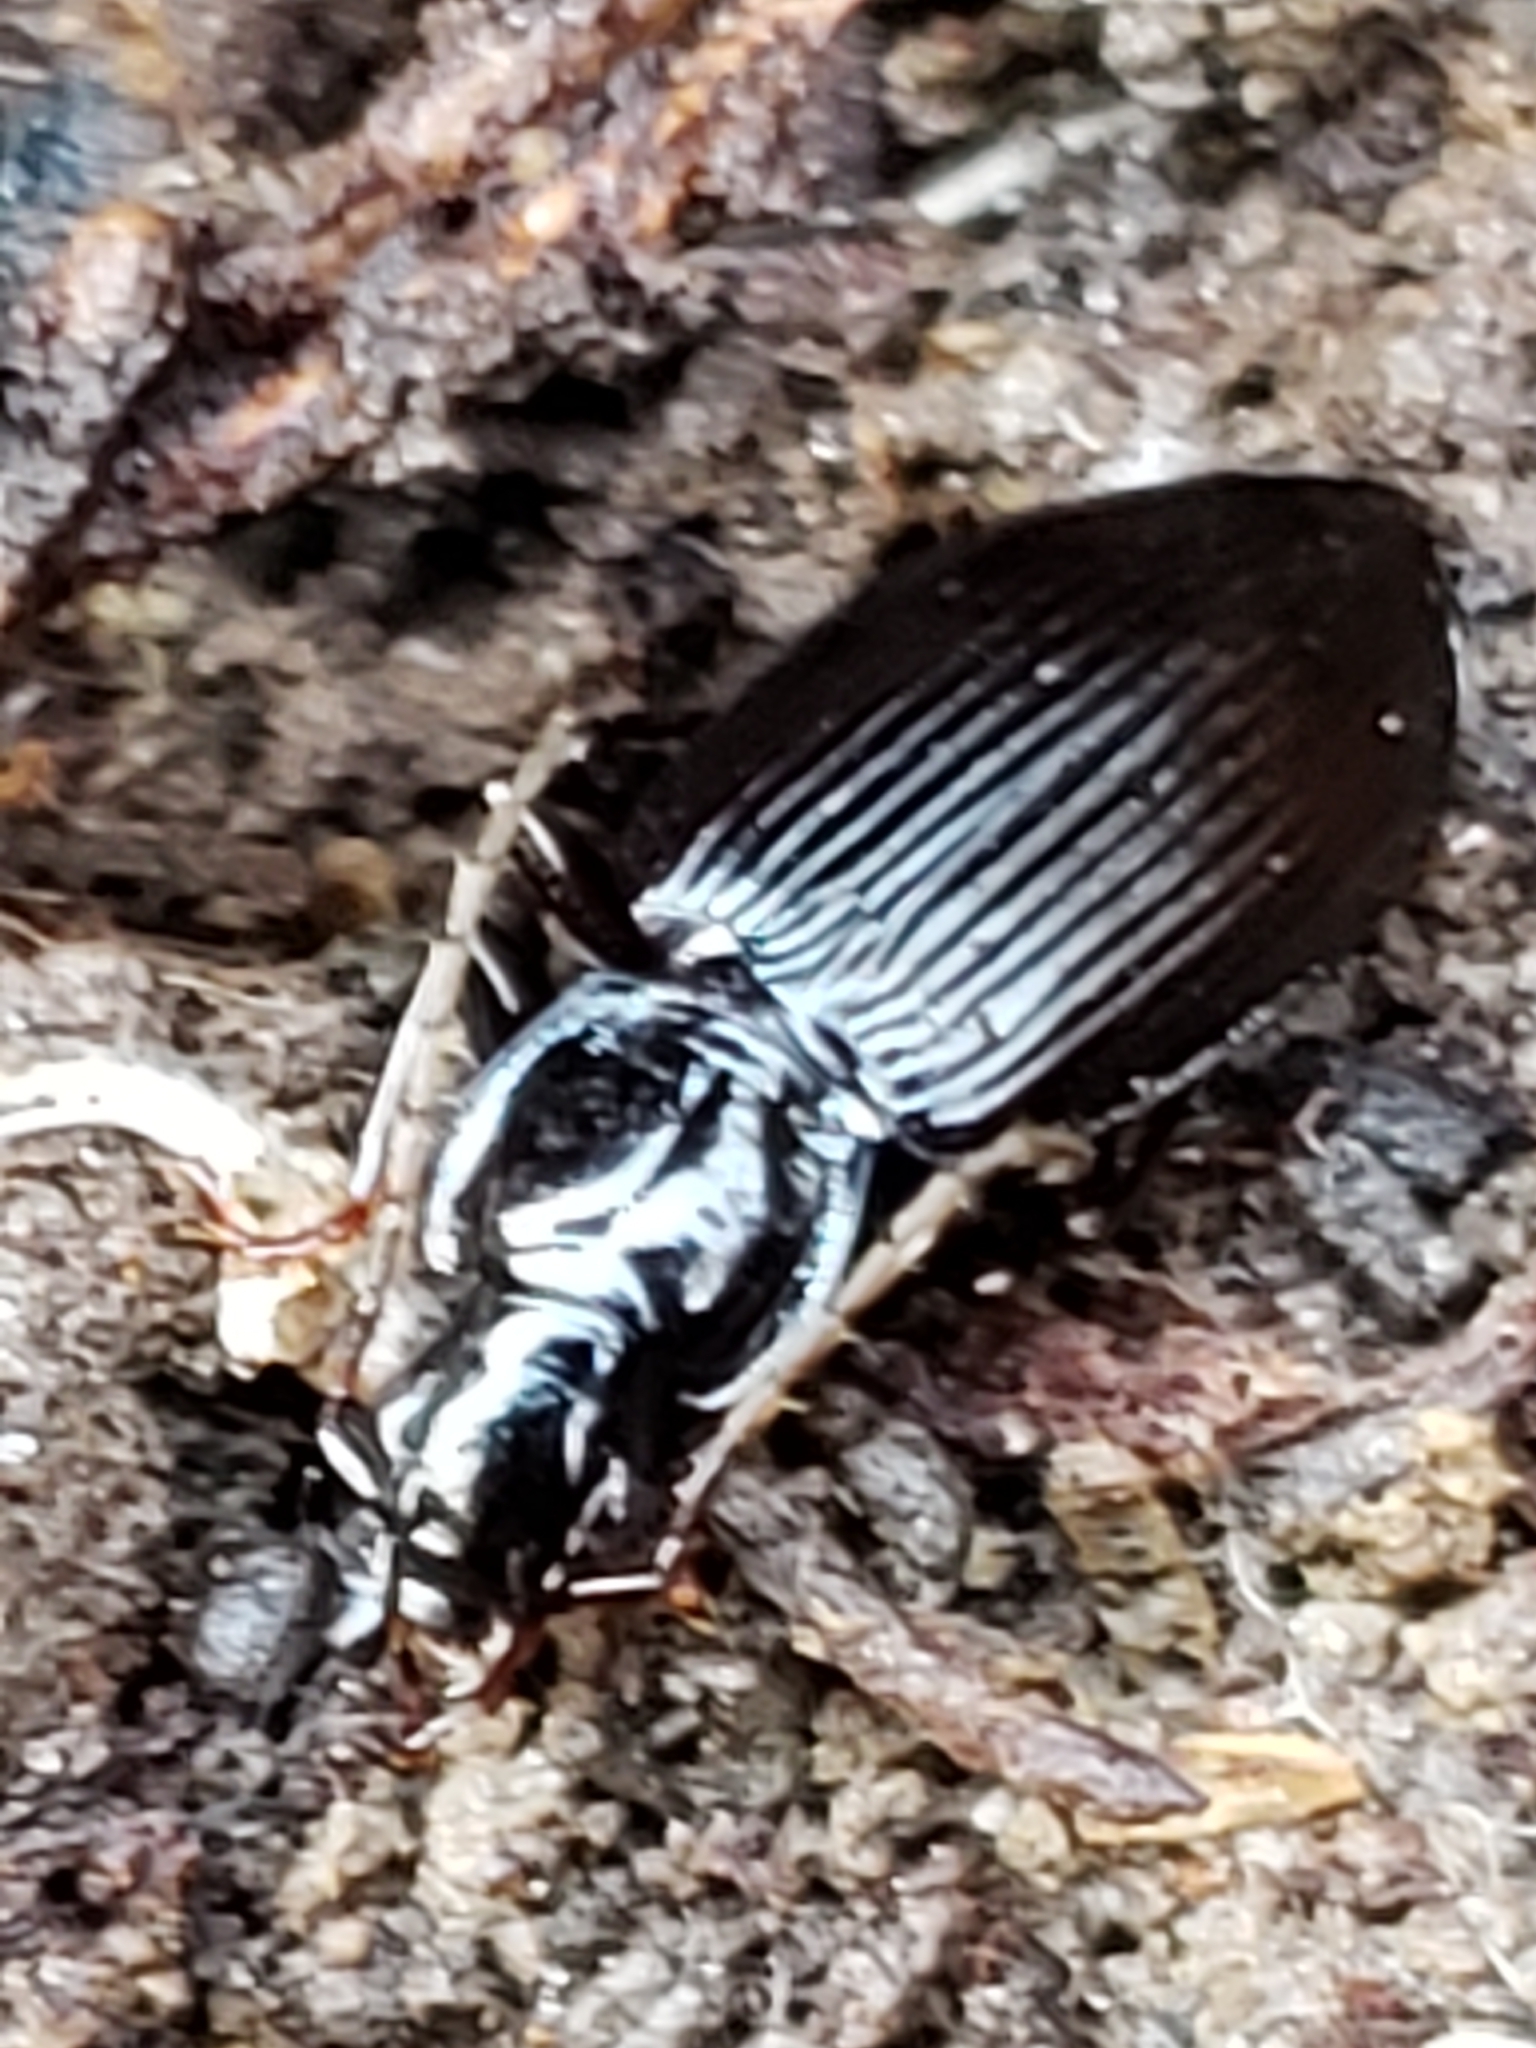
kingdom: Animalia
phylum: Arthropoda
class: Insecta
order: Coleoptera
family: Carabidae
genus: Platynus
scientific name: Platynus decentis
